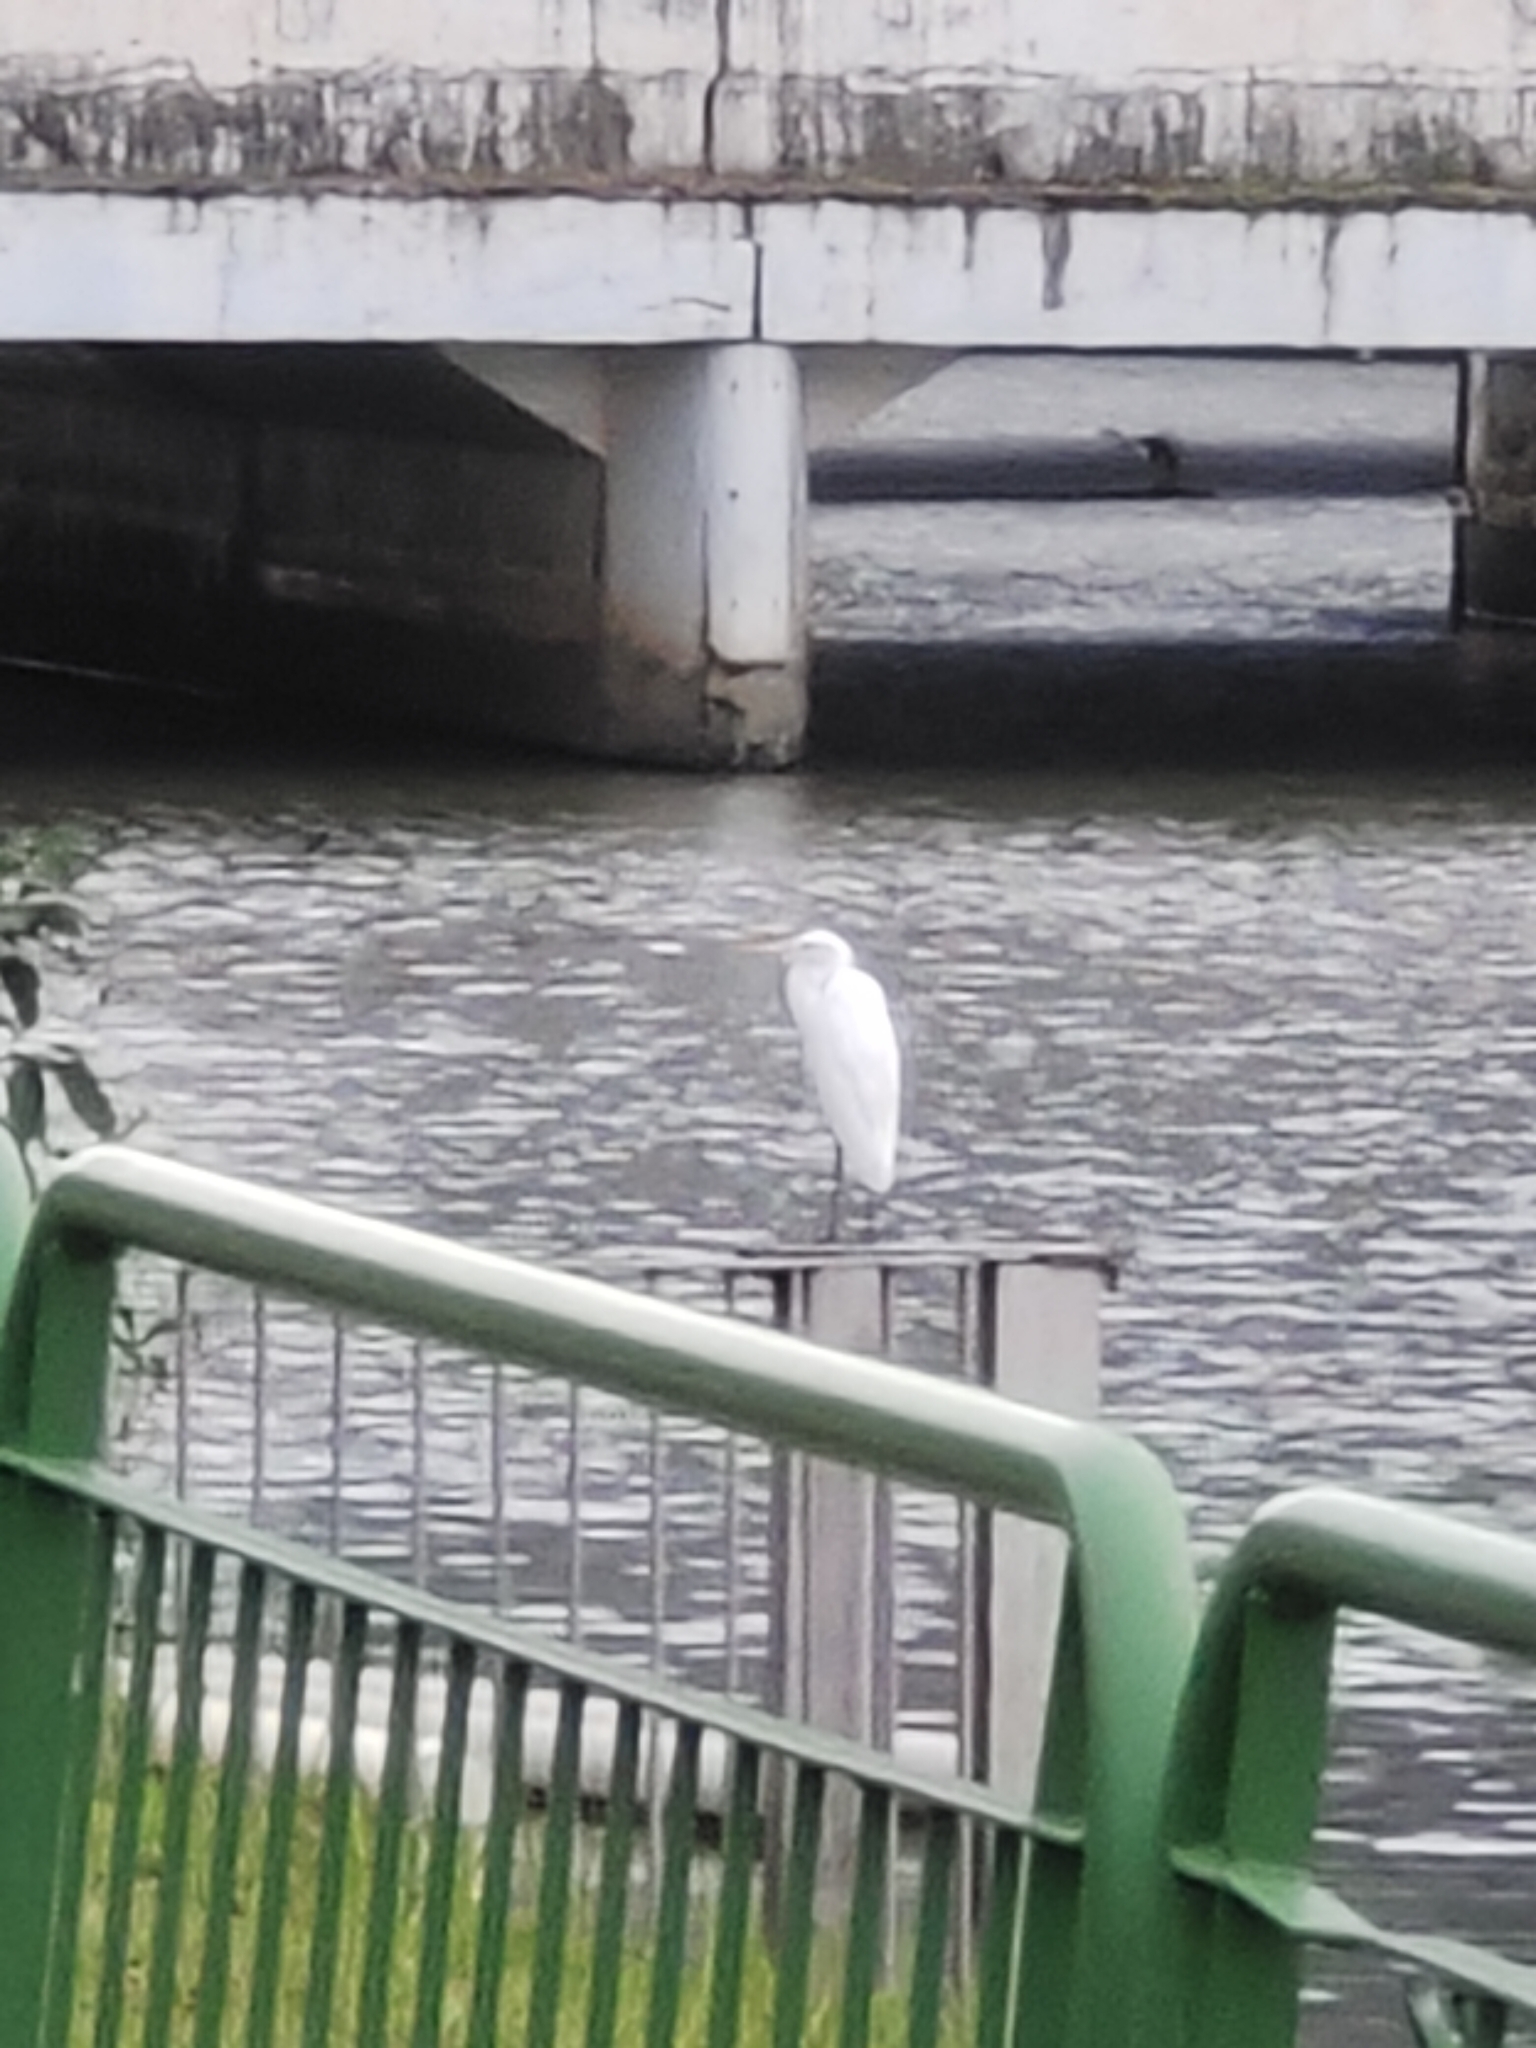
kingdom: Animalia
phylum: Chordata
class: Aves
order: Pelecaniformes
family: Ardeidae
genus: Egretta
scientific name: Egretta garzetta
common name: Little egret
